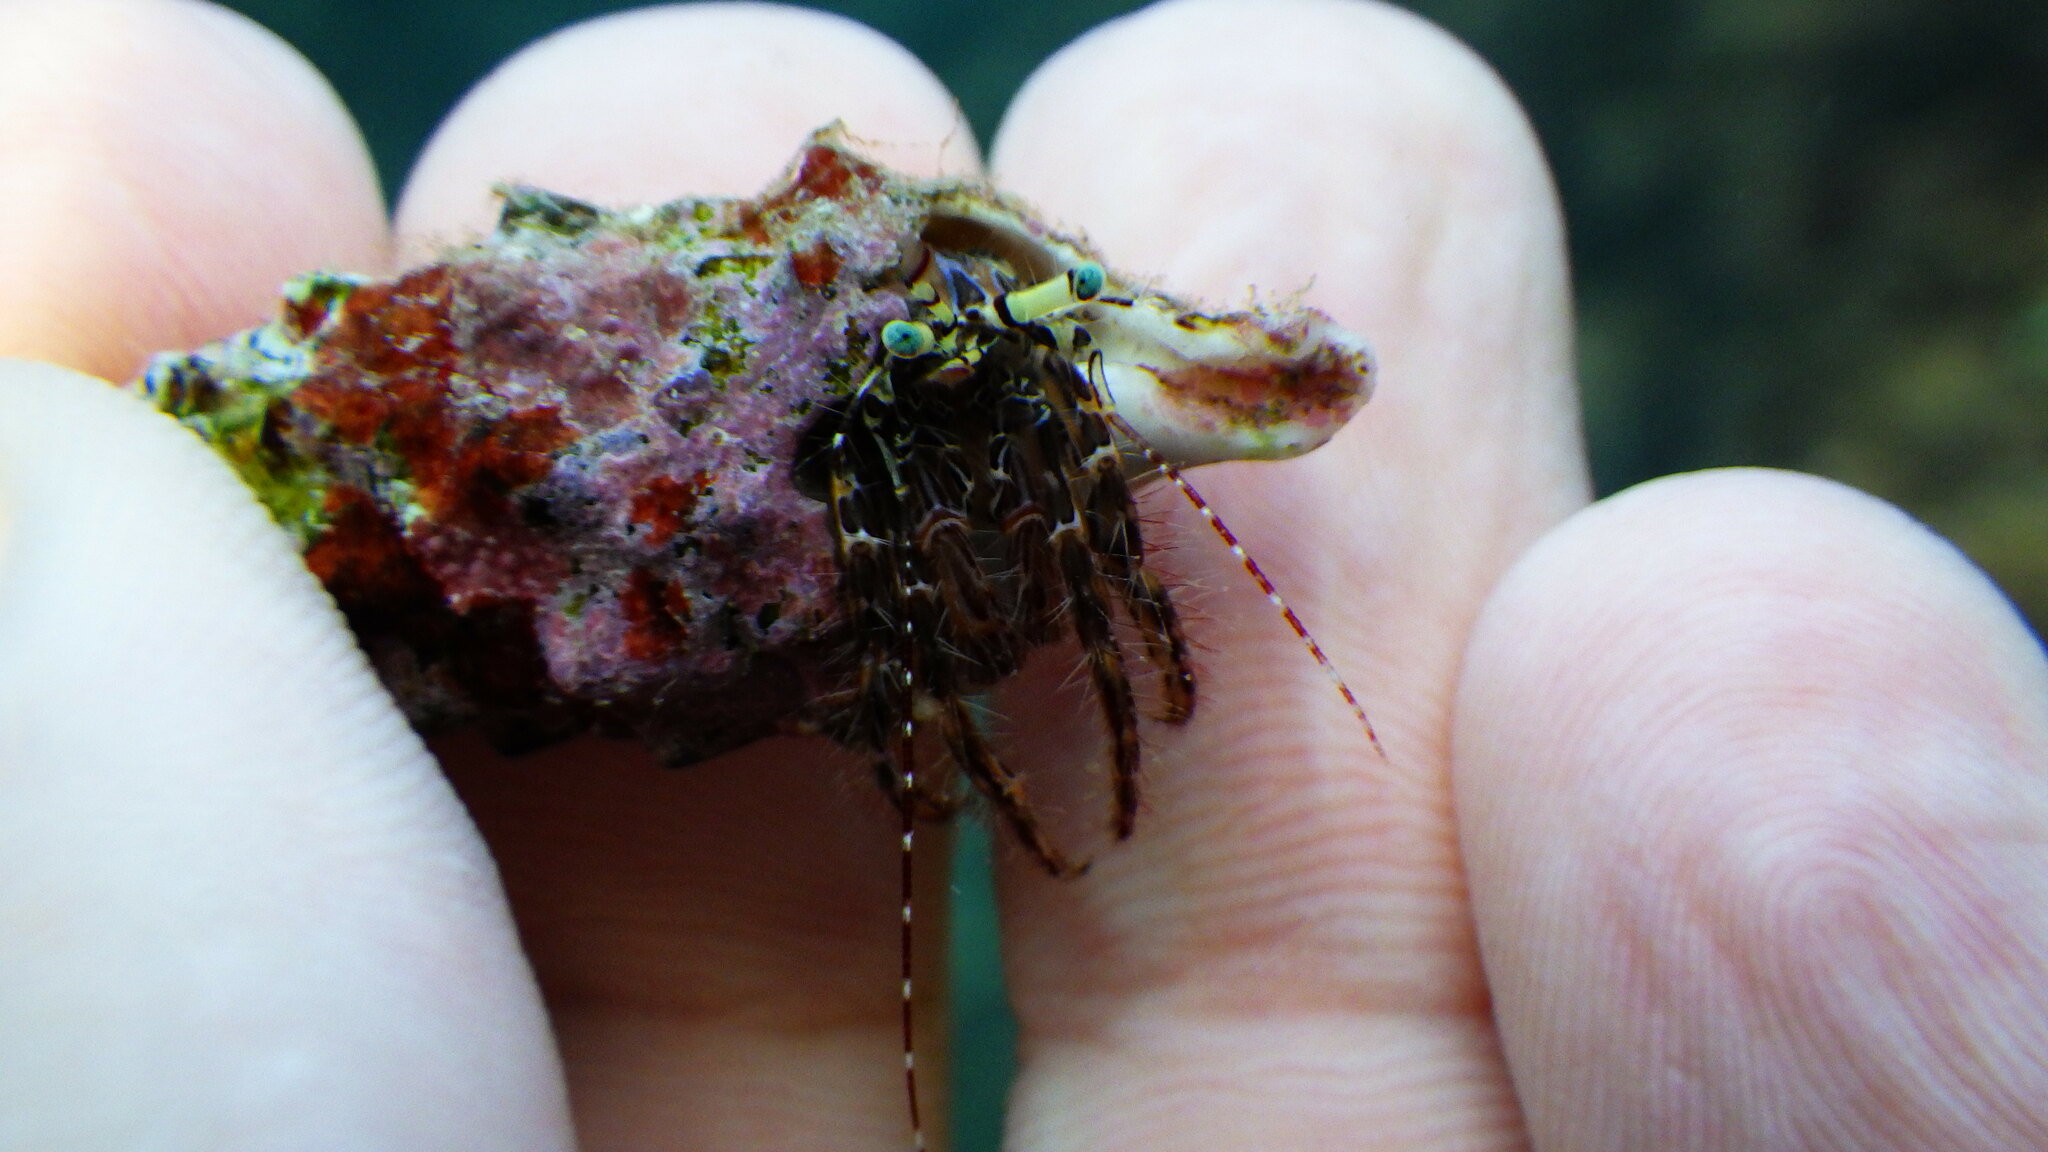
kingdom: Animalia
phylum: Arthropoda
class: Malacostraca
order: Decapoda
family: Paguridae
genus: Pagurus
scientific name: Pagurus anachoretus
